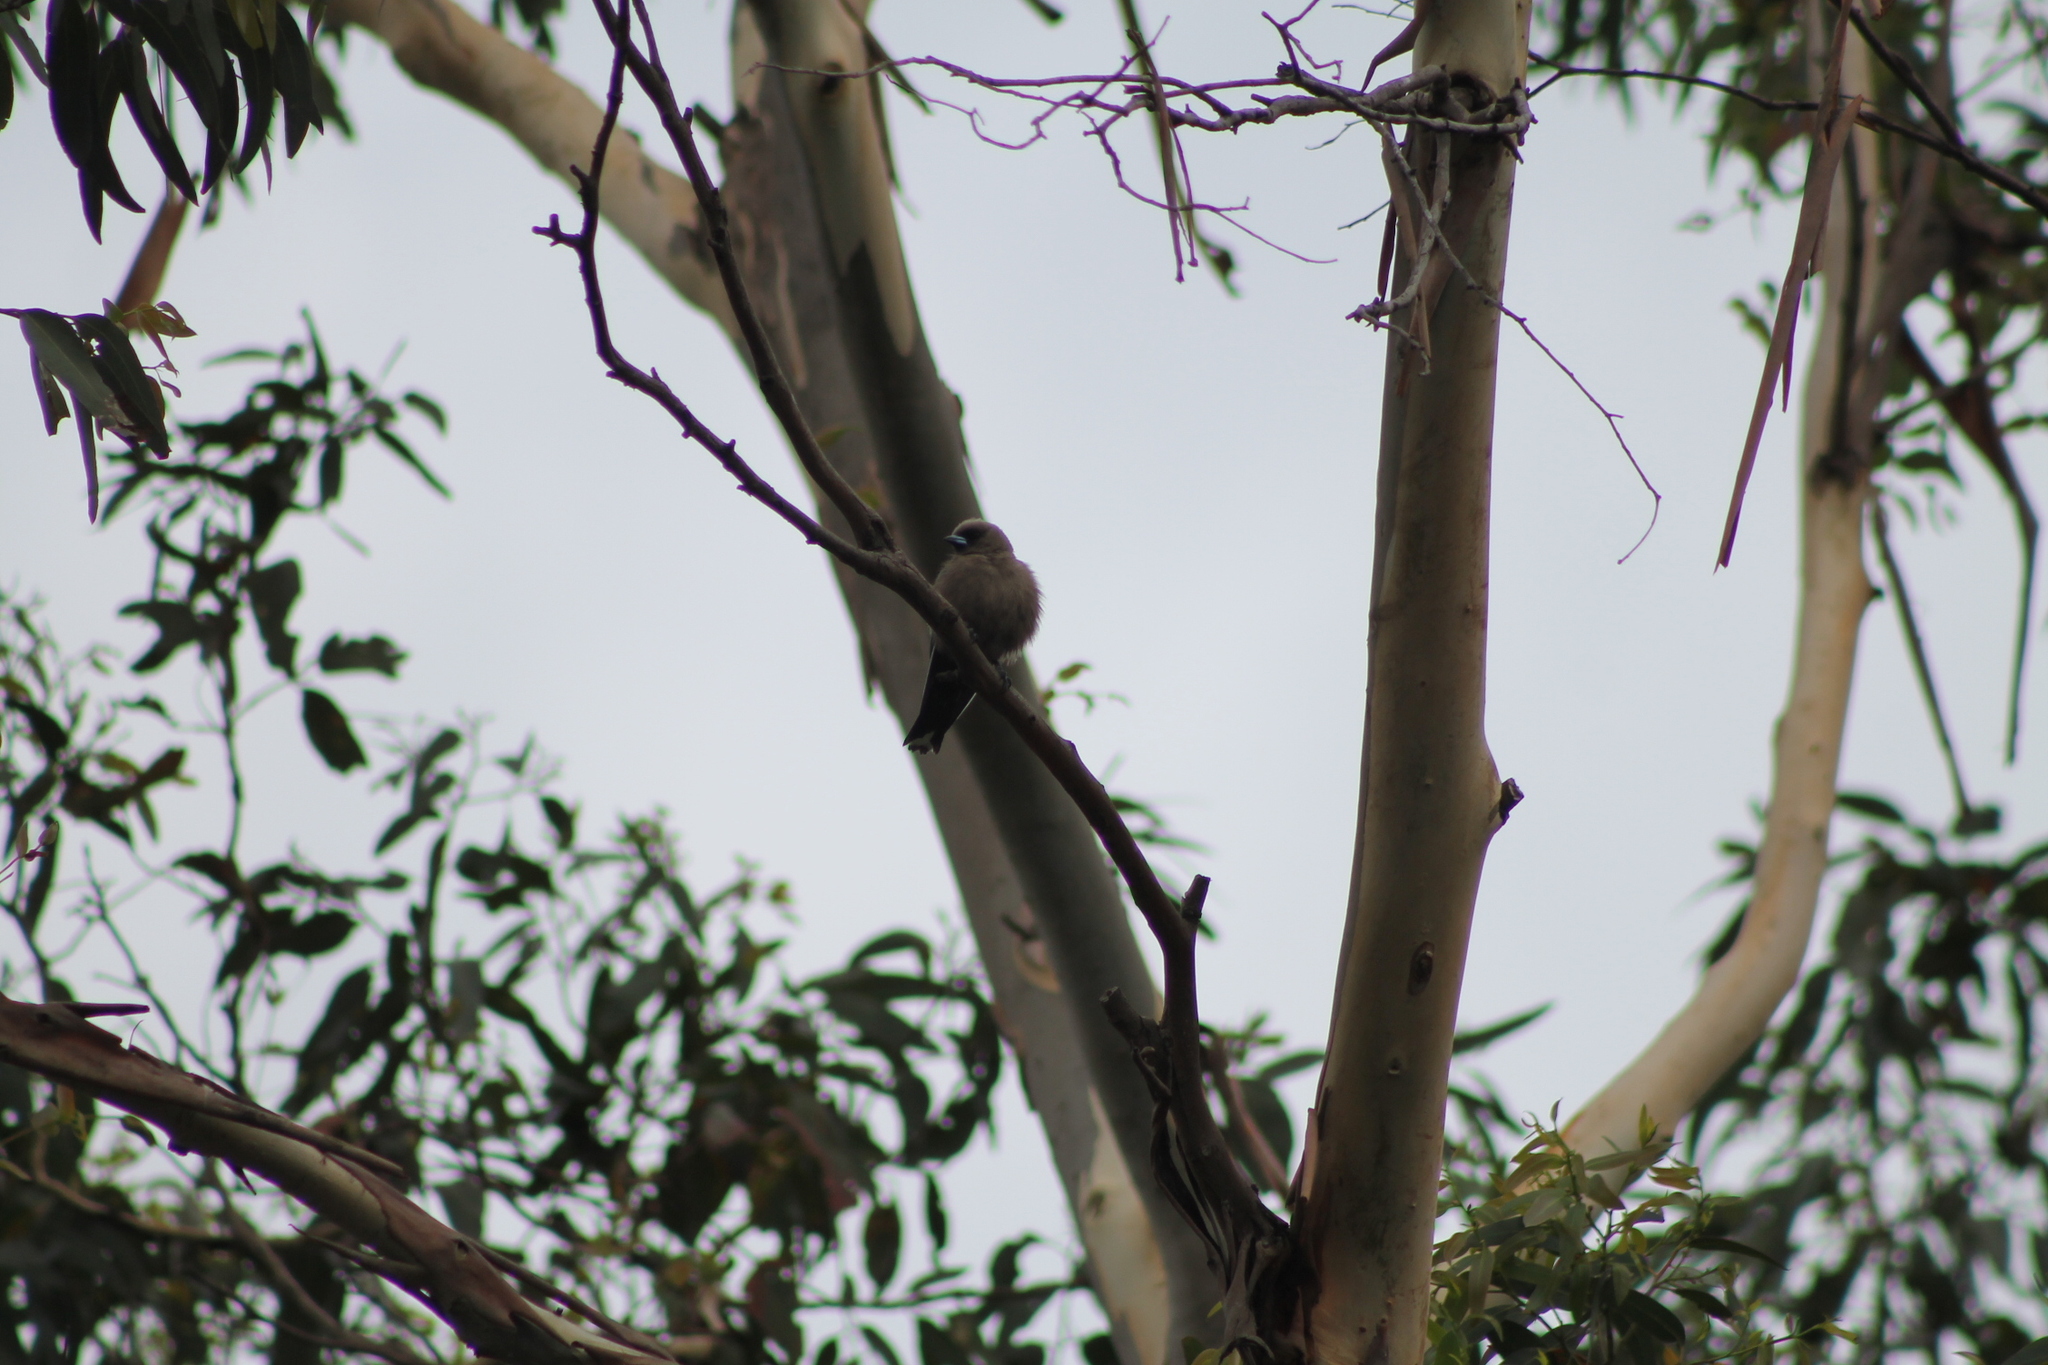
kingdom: Animalia
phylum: Chordata
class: Aves
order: Passeriformes
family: Artamidae
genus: Artamus
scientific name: Artamus cyanopterus
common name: Dusky woodswallow
